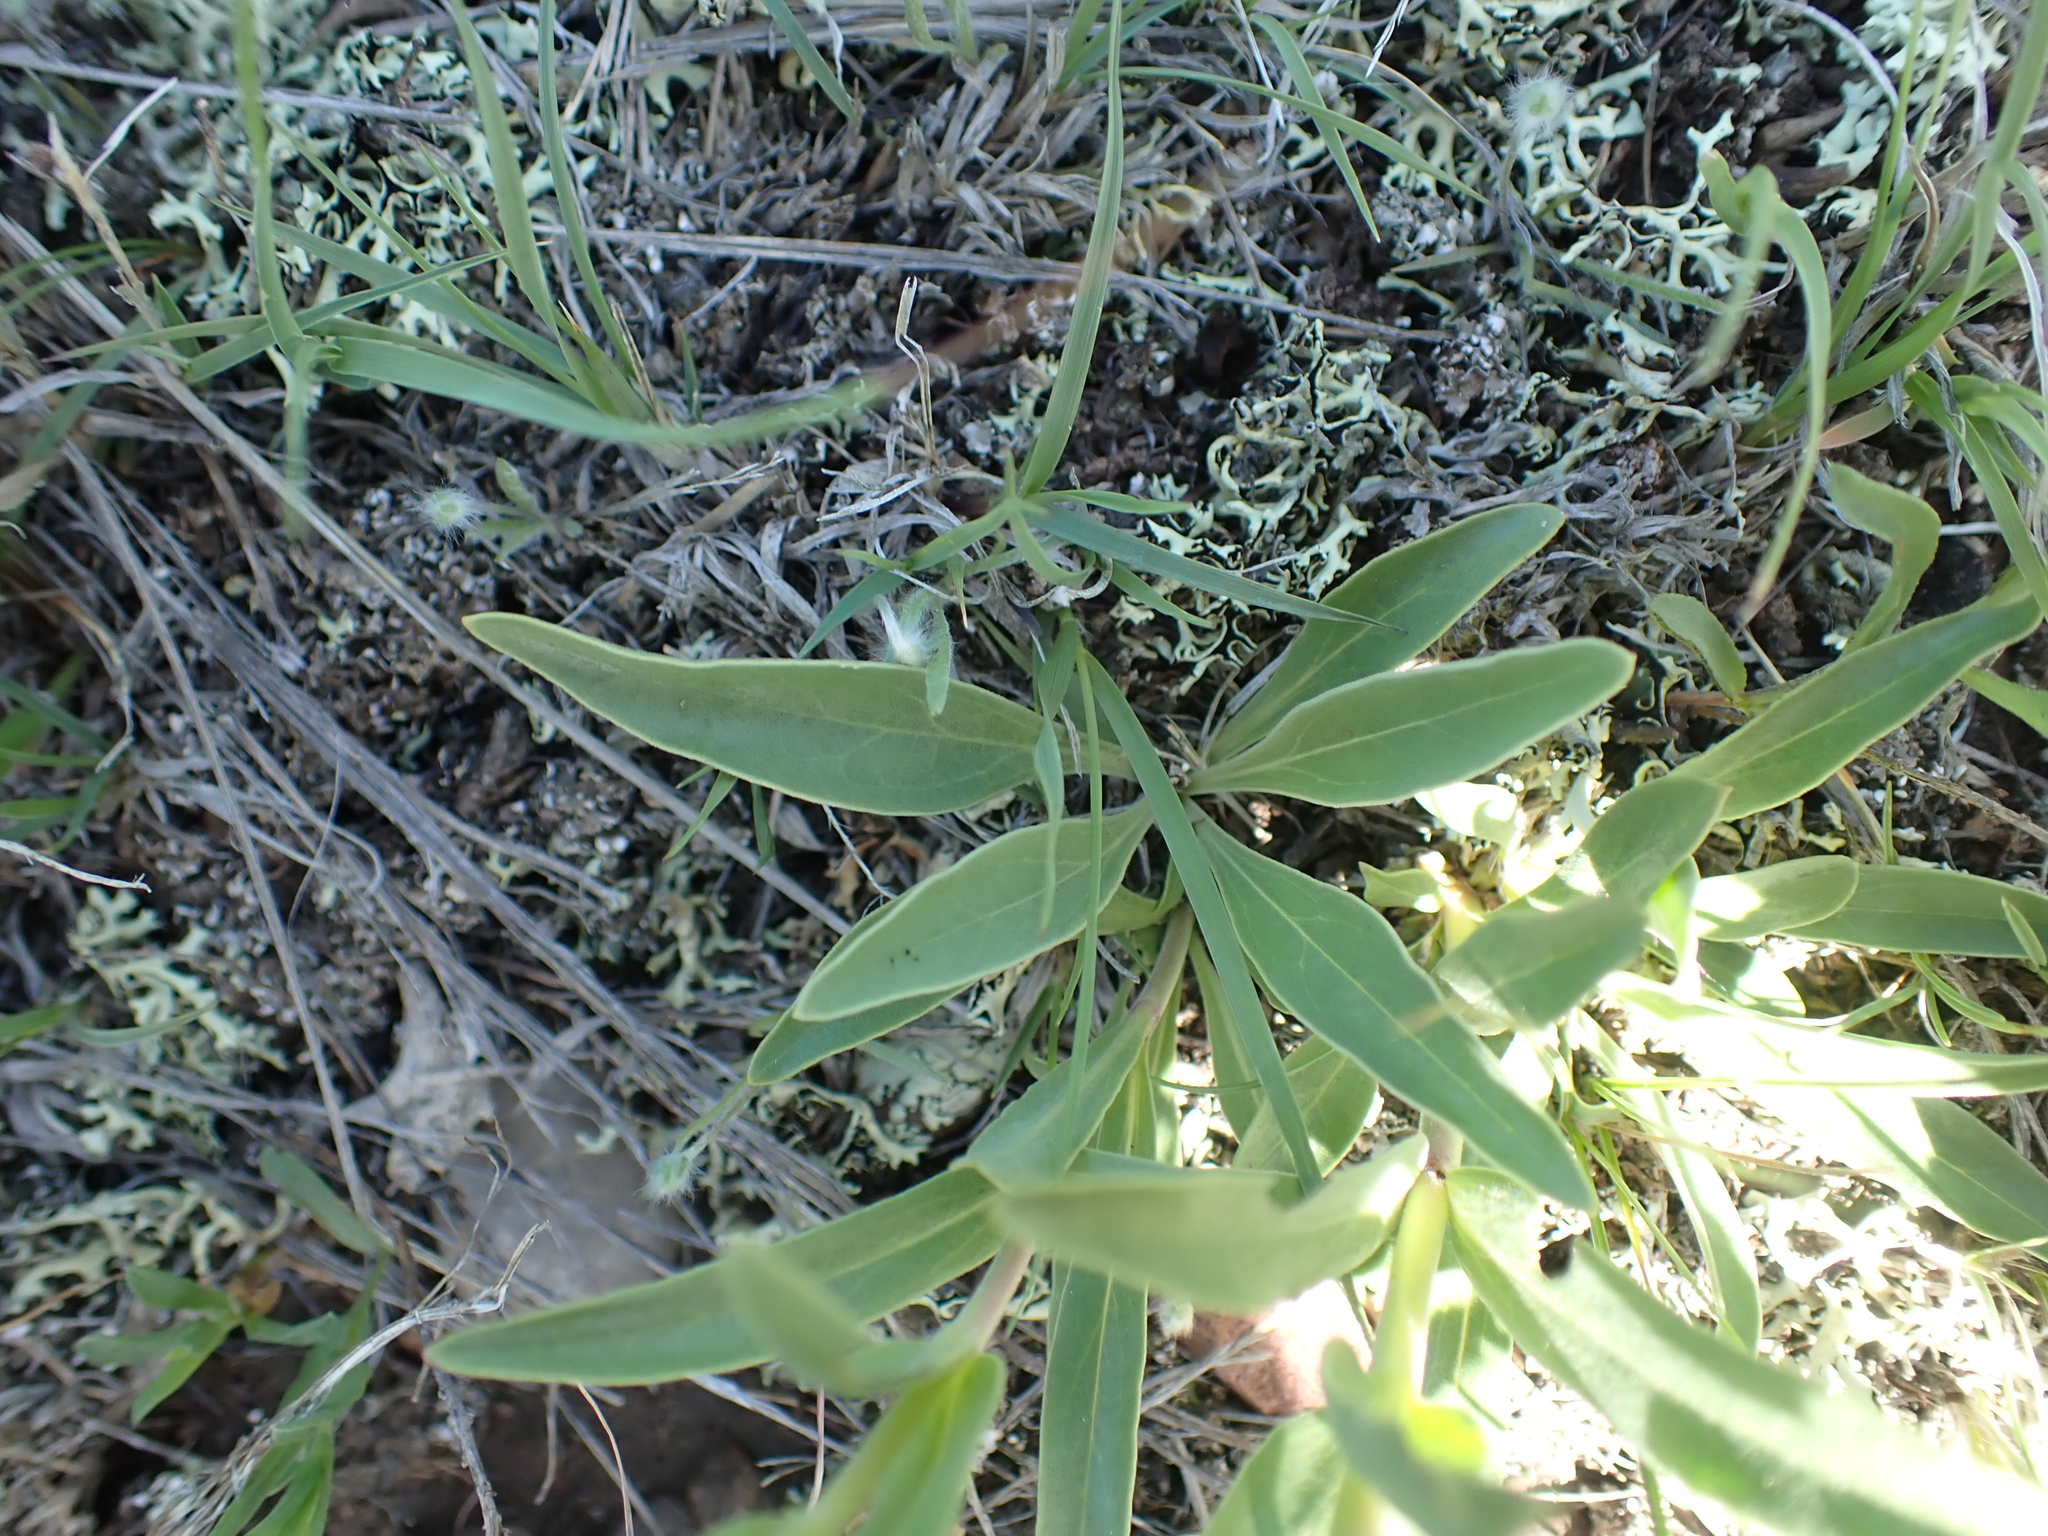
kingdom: Plantae
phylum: Tracheophyta
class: Magnoliopsida
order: Lamiales
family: Plantaginaceae
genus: Penstemon
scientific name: Penstemon albidus
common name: White beardtongue
